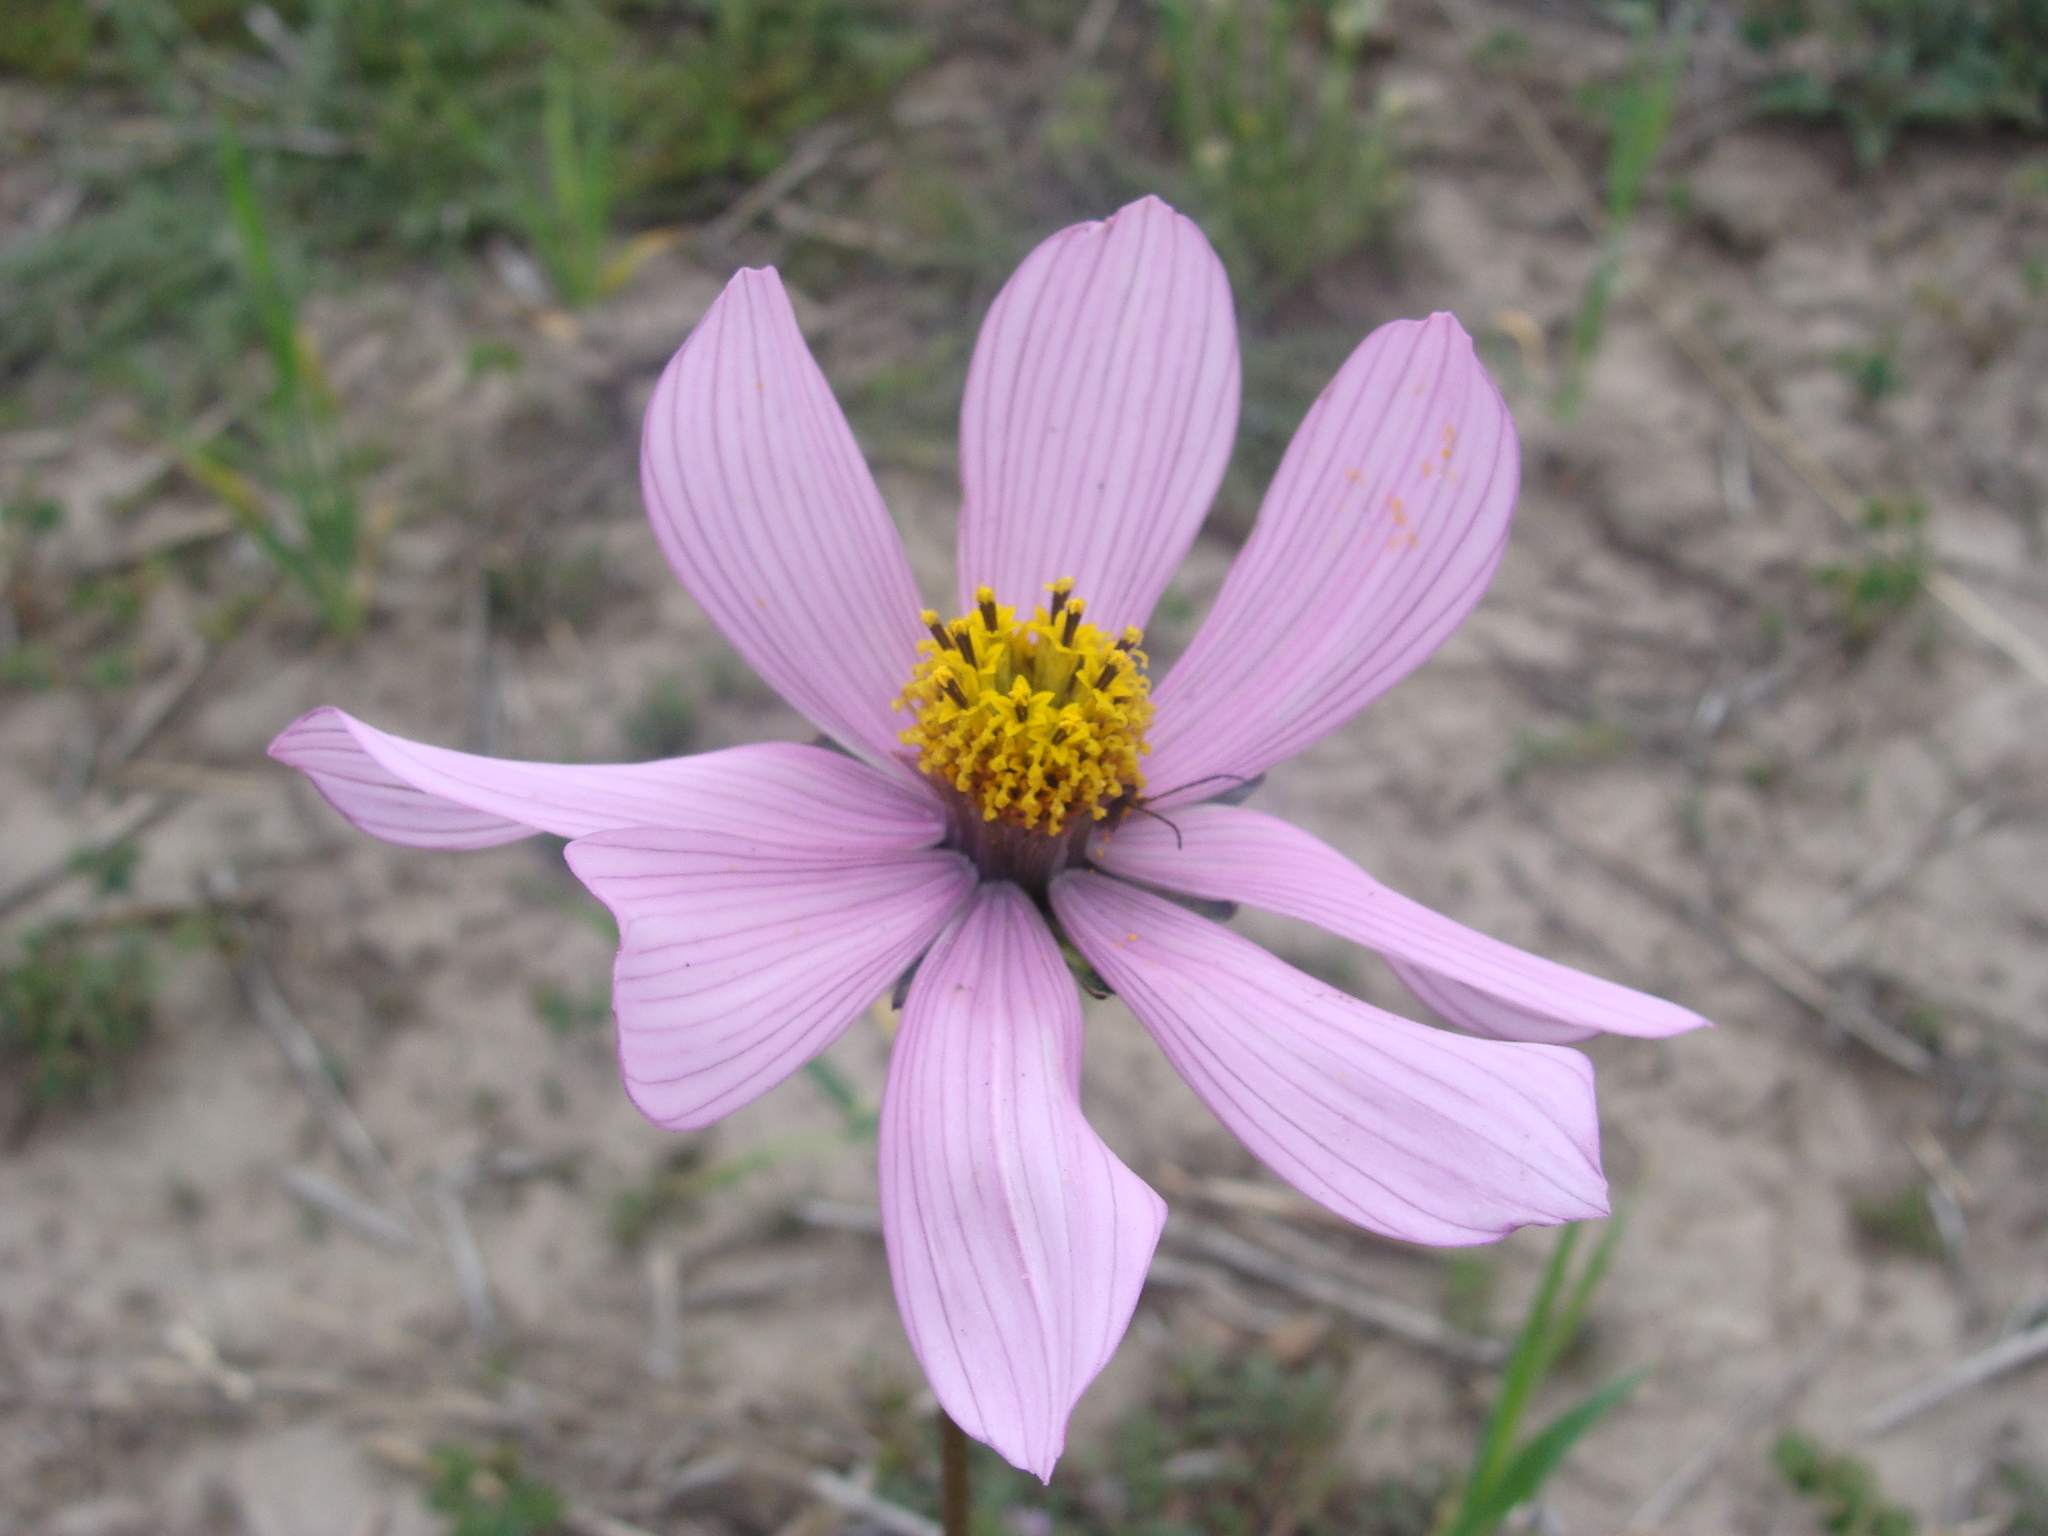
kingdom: Plantae
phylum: Tracheophyta
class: Magnoliopsida
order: Asterales
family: Asteraceae
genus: Cosmos
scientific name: Cosmos diversifolius
